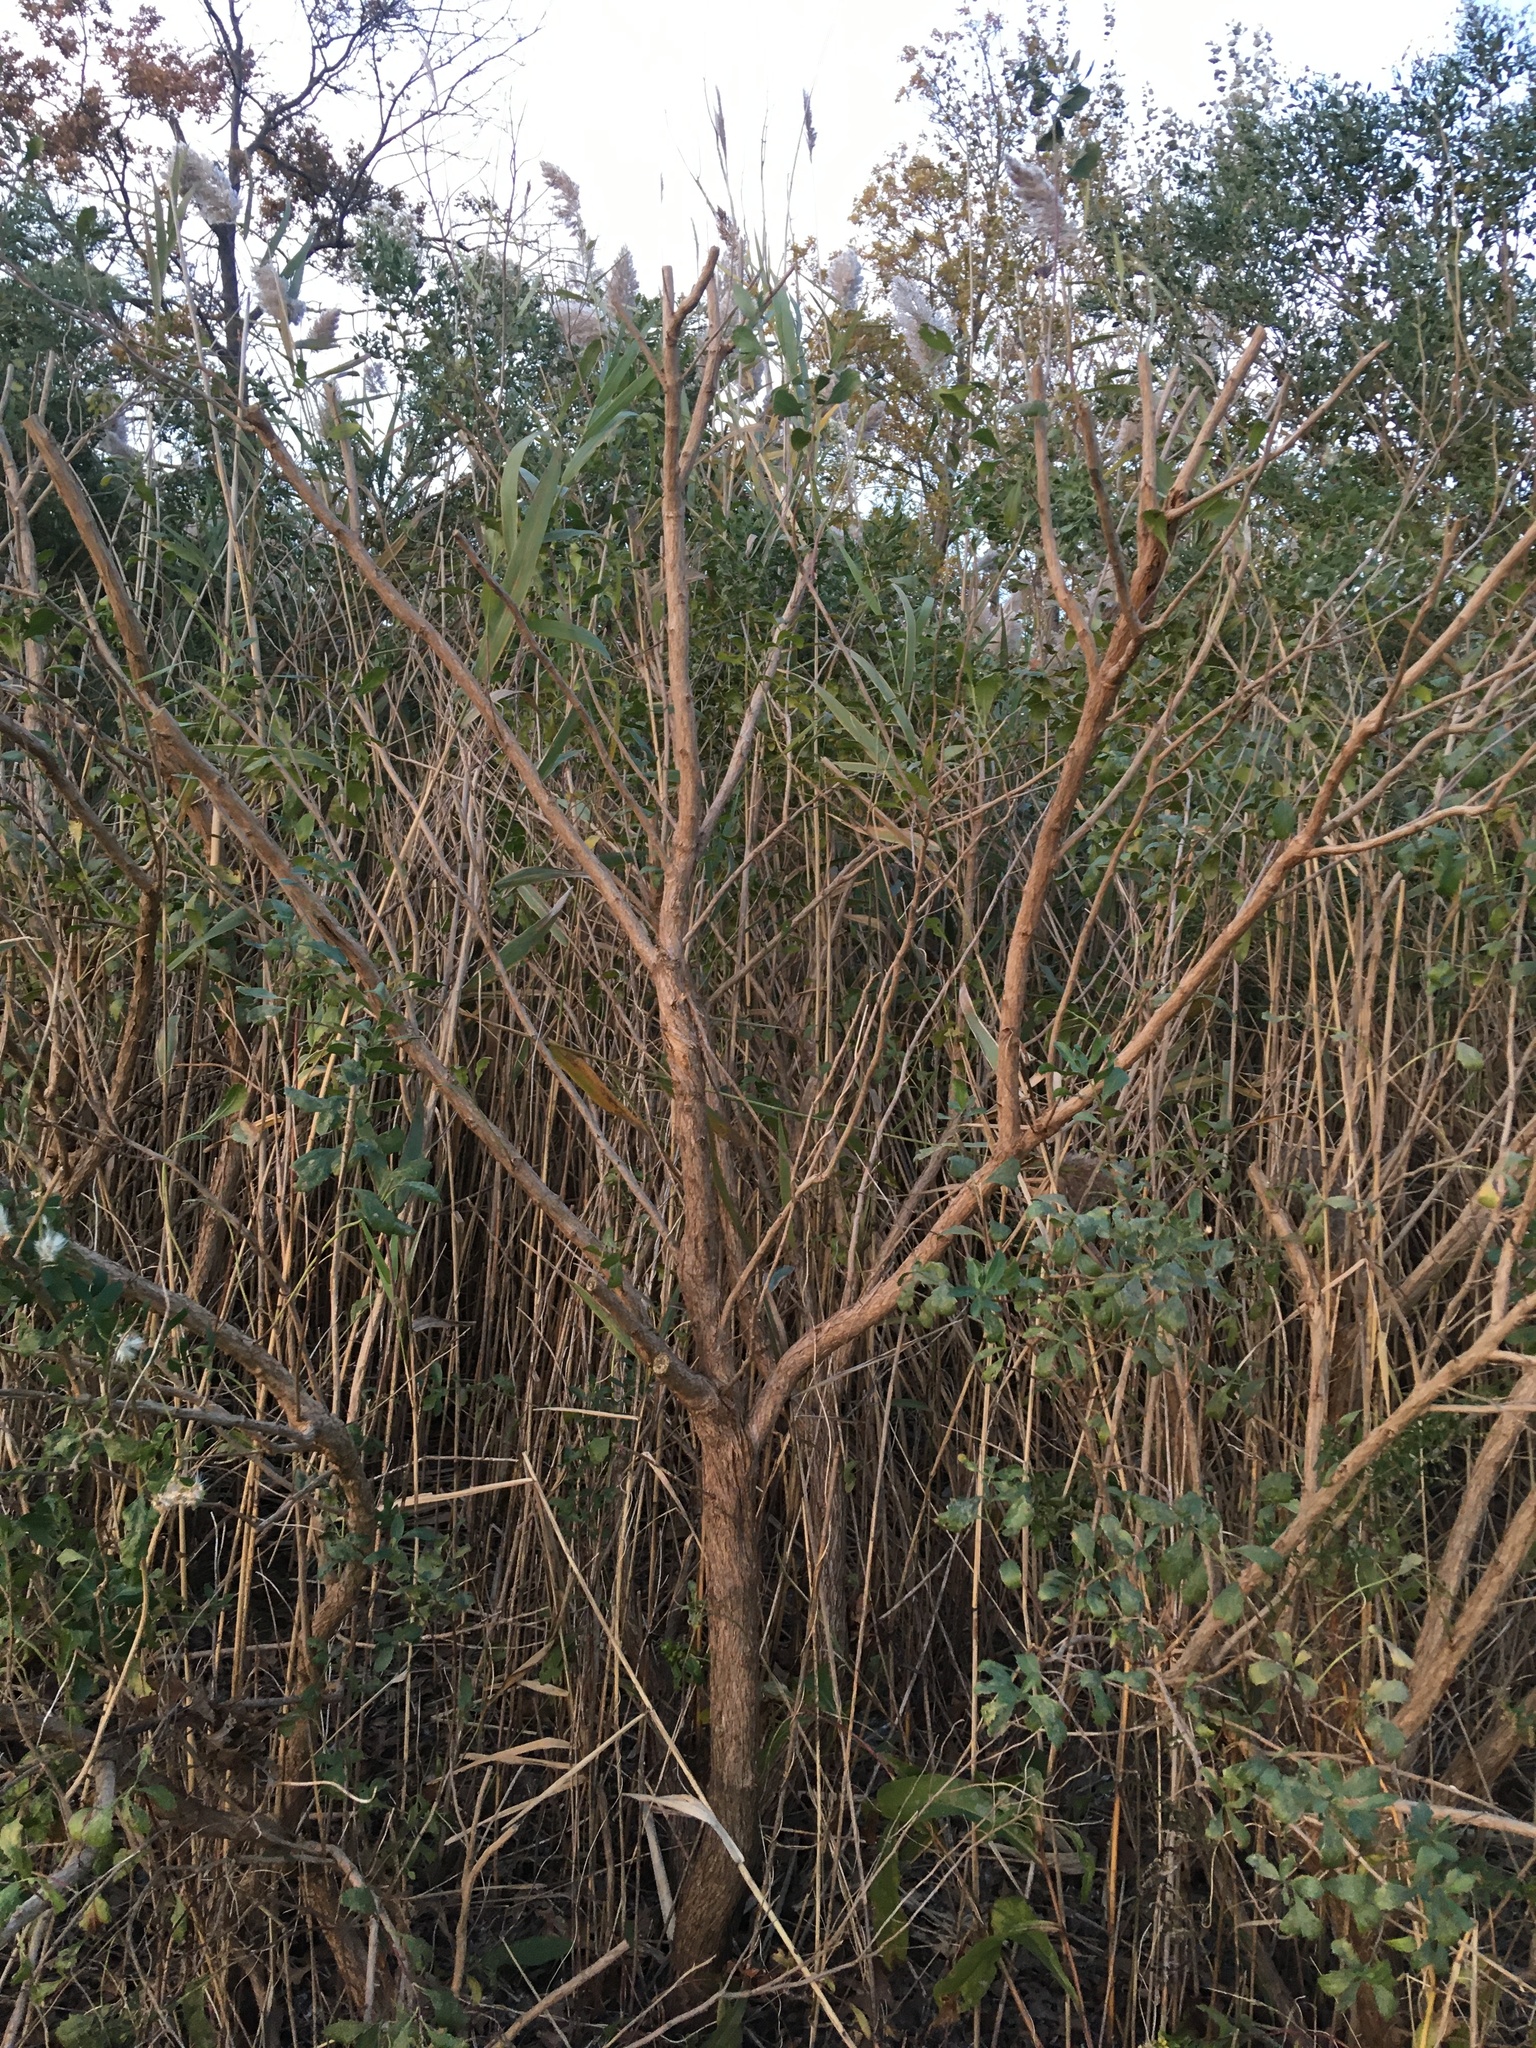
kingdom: Plantae
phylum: Tracheophyta
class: Magnoliopsida
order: Asterales
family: Asteraceae
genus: Baccharis
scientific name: Baccharis halimifolia
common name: Eastern baccharis
